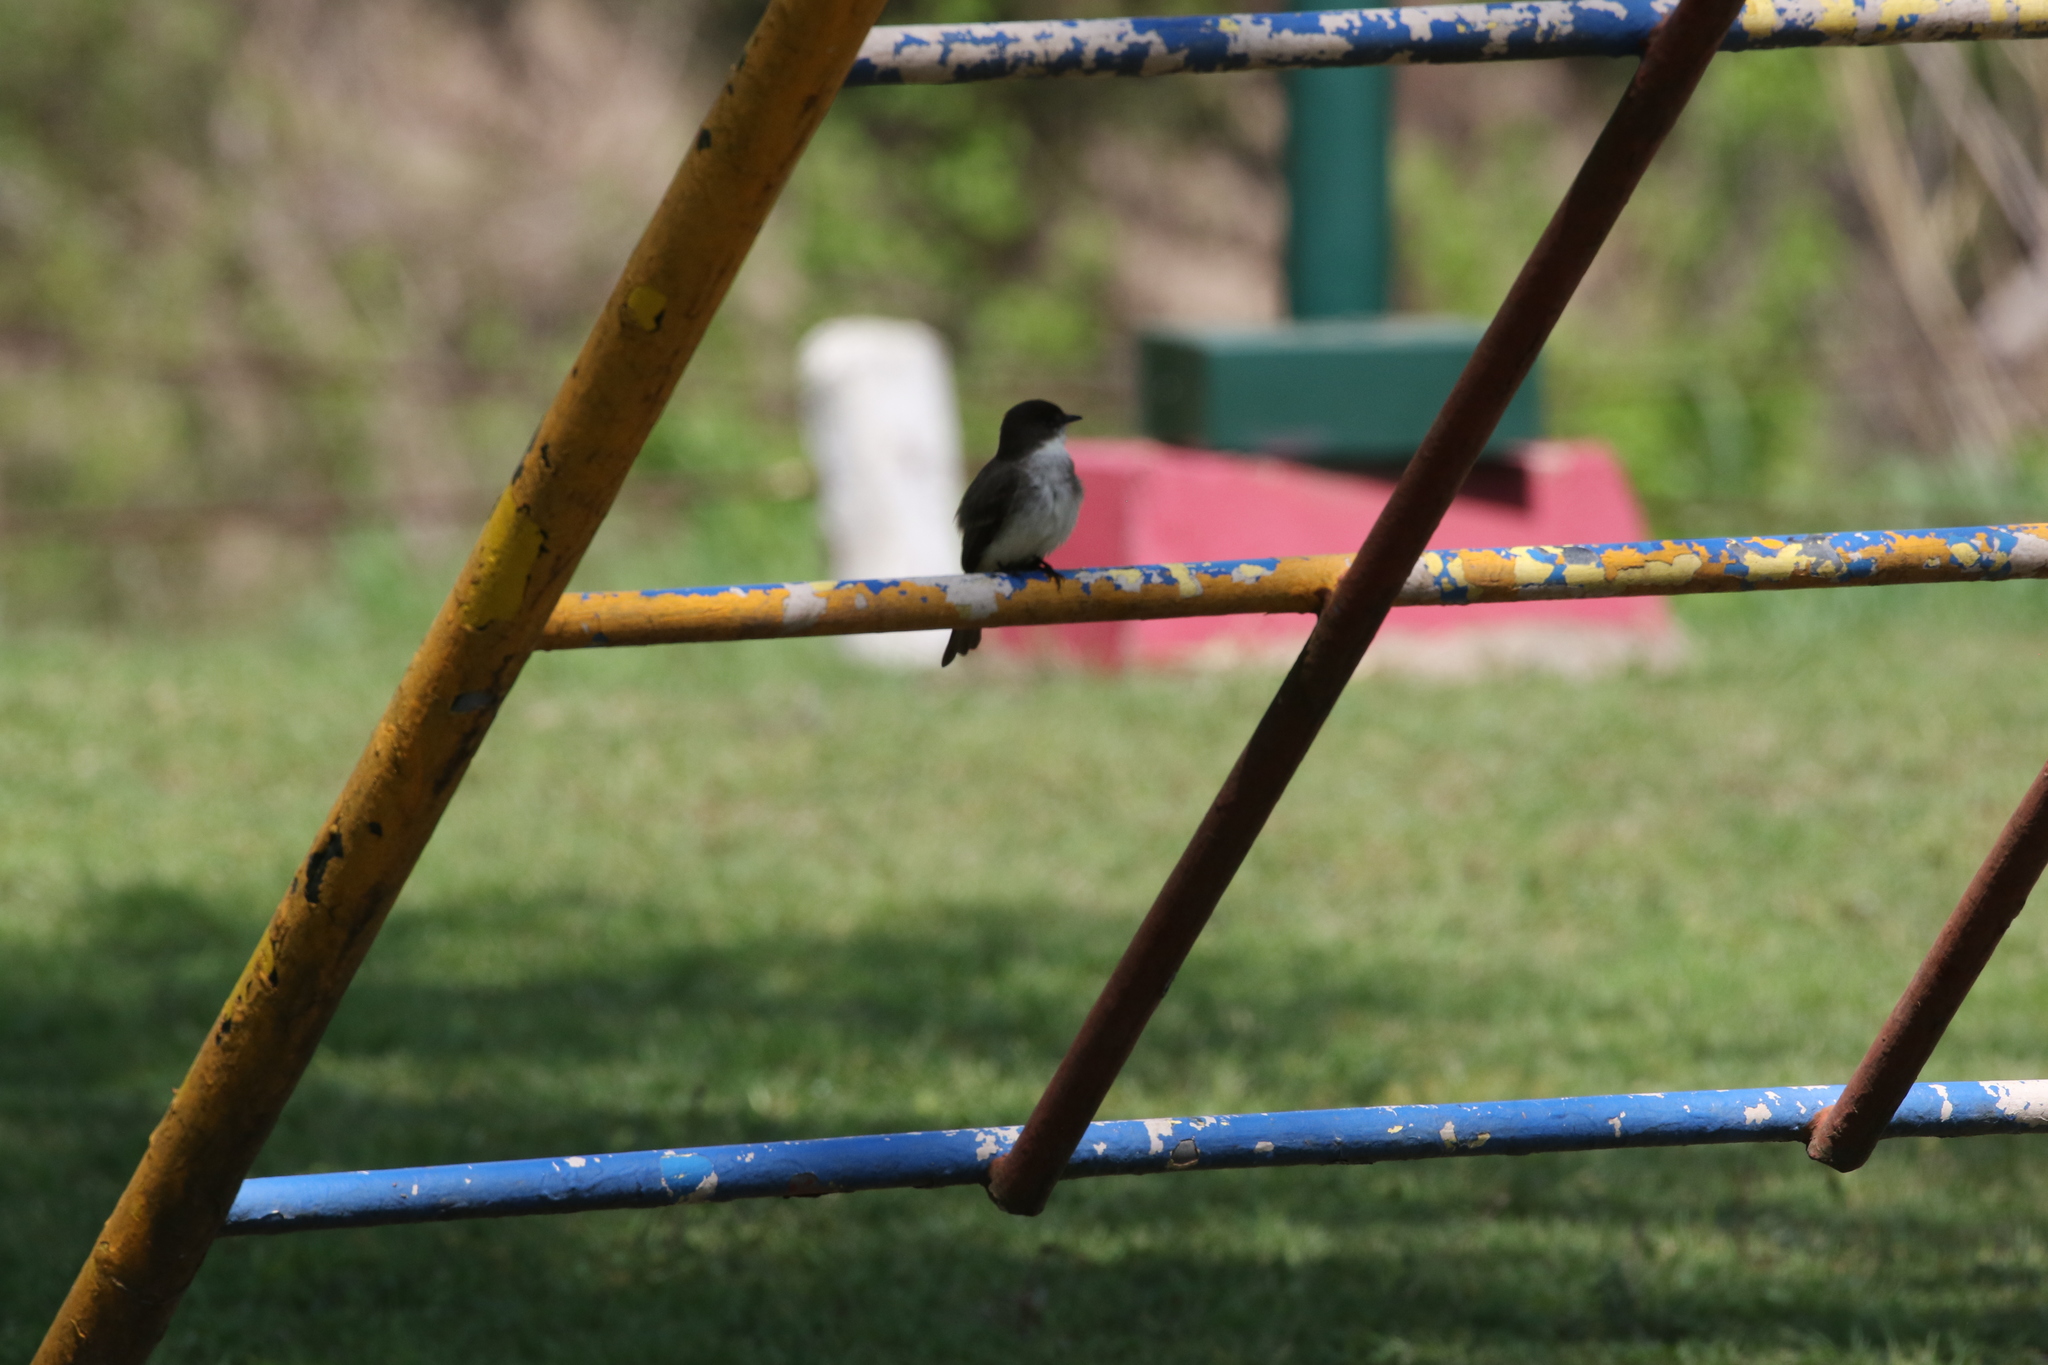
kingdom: Animalia
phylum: Chordata
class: Aves
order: Passeriformes
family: Tyrannidae
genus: Sayornis
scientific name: Sayornis phoebe
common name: Eastern phoebe
